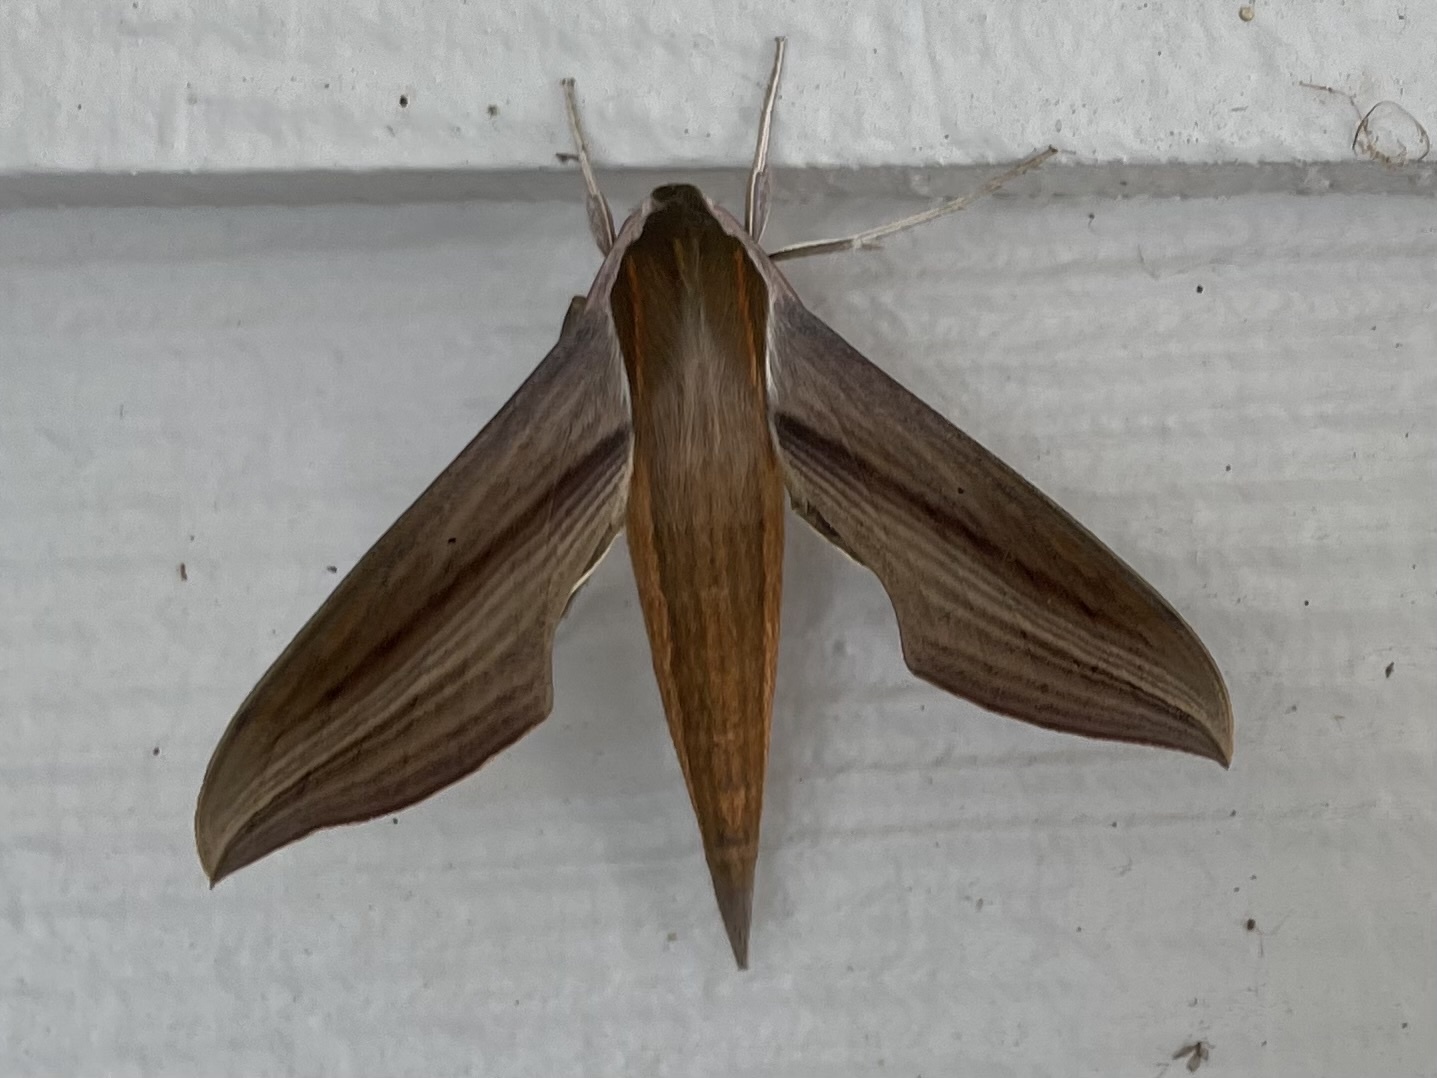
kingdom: Animalia
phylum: Arthropoda
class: Insecta
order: Lepidoptera
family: Sphingidae
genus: Xylophanes
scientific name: Xylophanes tersa
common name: Tersa sphinx
